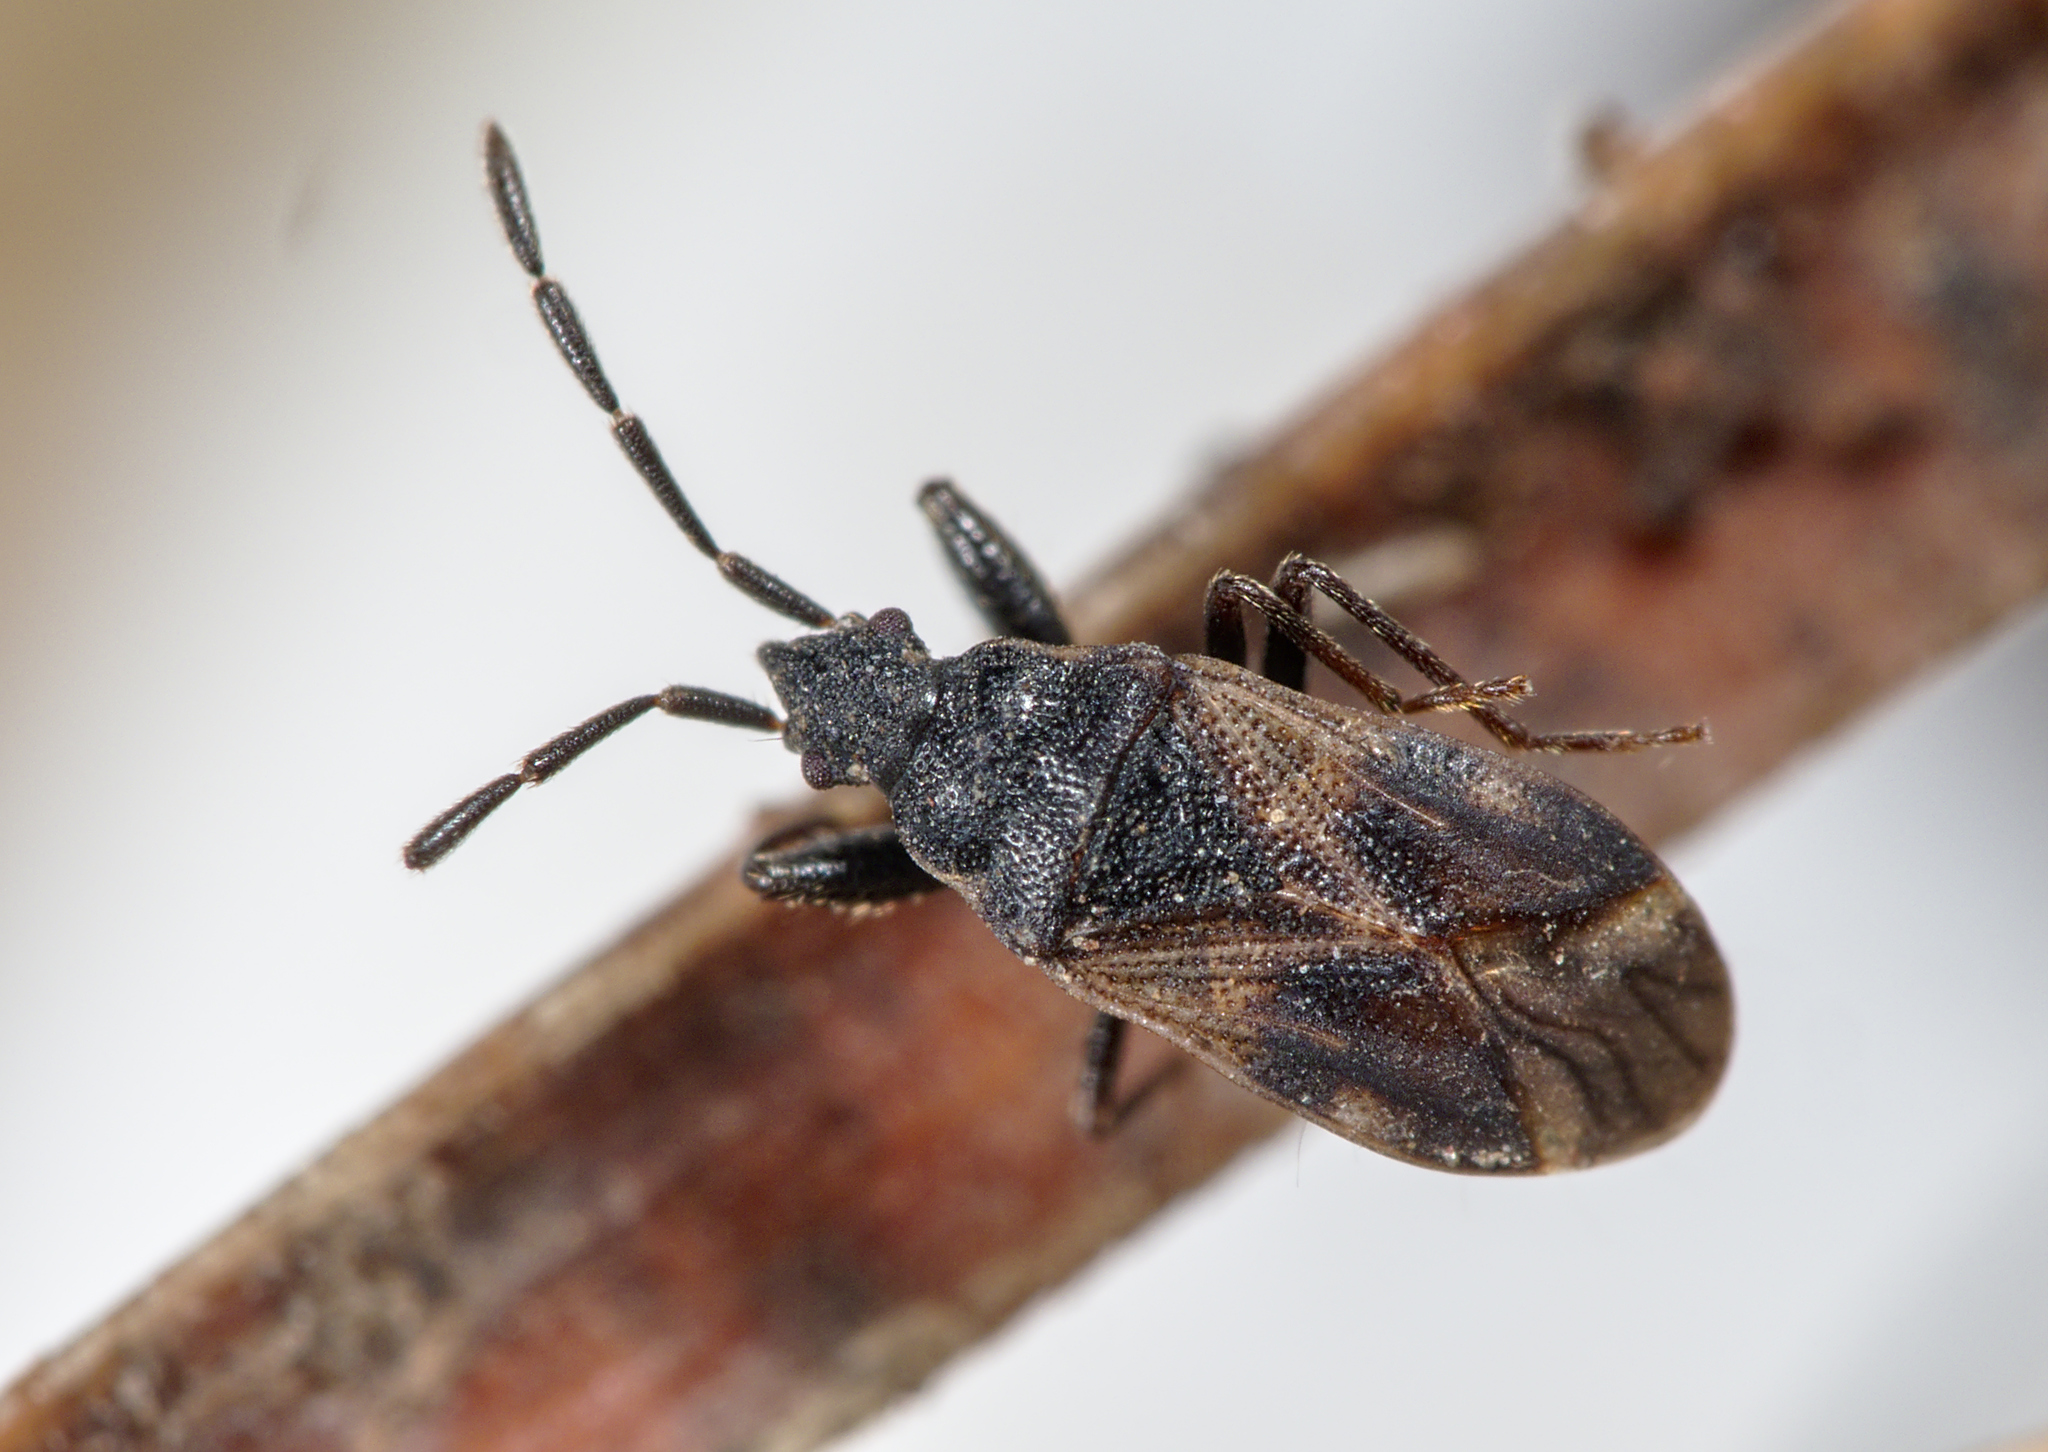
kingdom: Animalia
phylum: Arthropoda
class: Insecta
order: Hemiptera
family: Rhyparochromidae
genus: Taphropeltus
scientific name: Taphropeltus contractus
